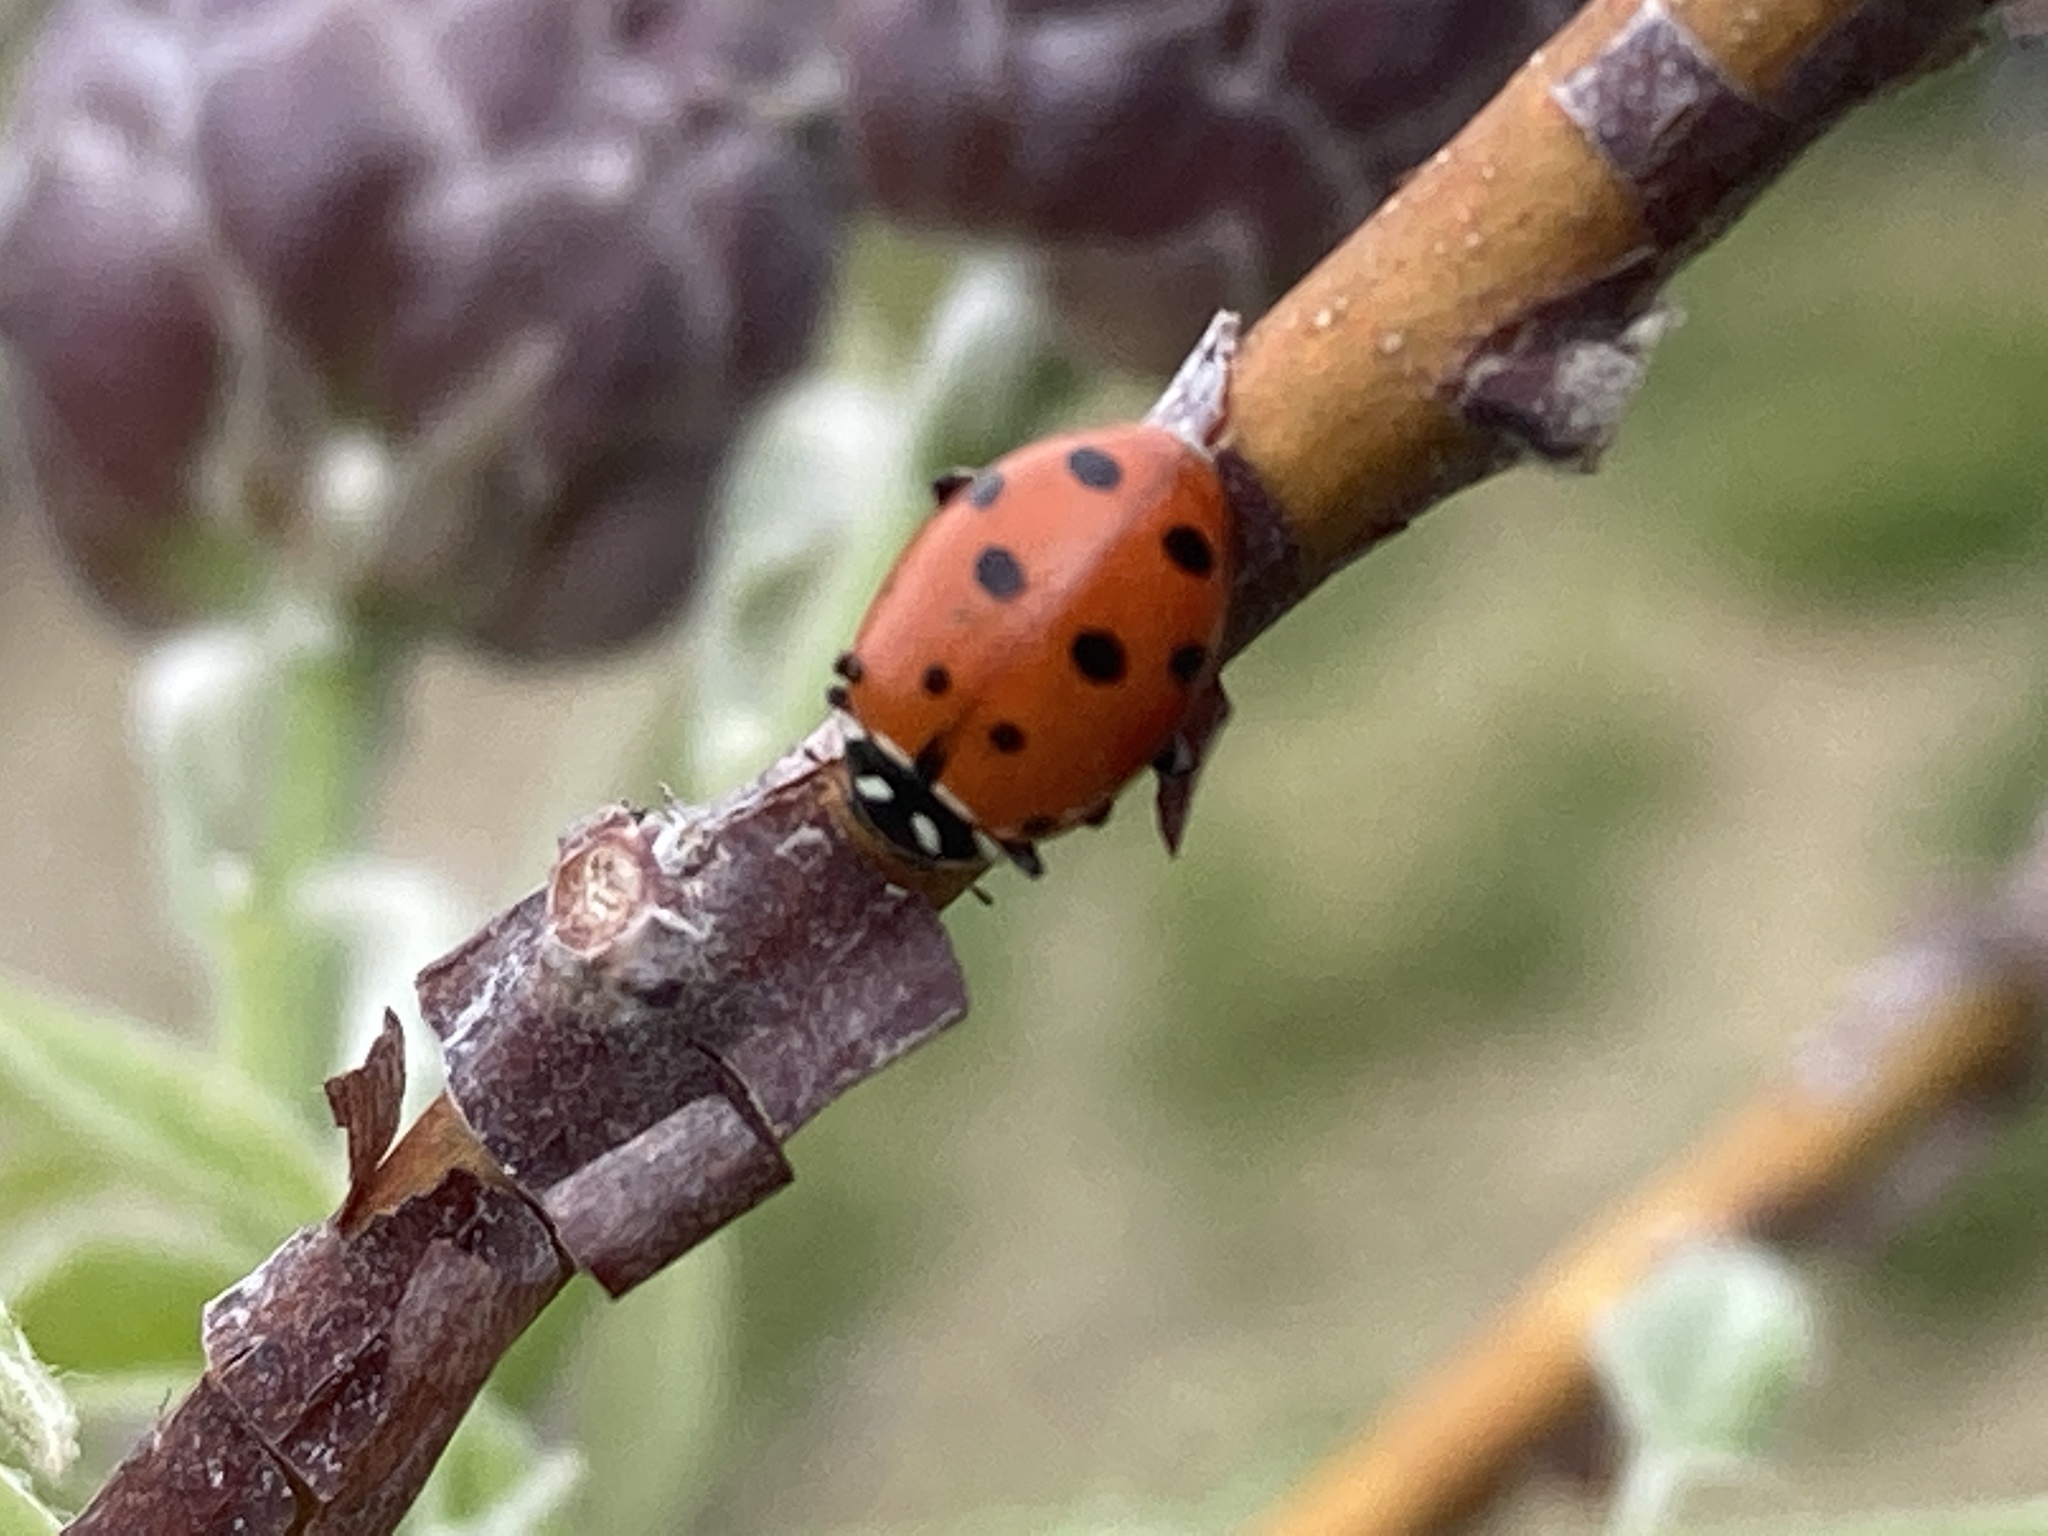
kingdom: Animalia
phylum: Arthropoda
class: Insecta
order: Coleoptera
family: Coccinellidae
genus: Hippodamia
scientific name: Hippodamia convergens
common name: Convergent lady beetle
